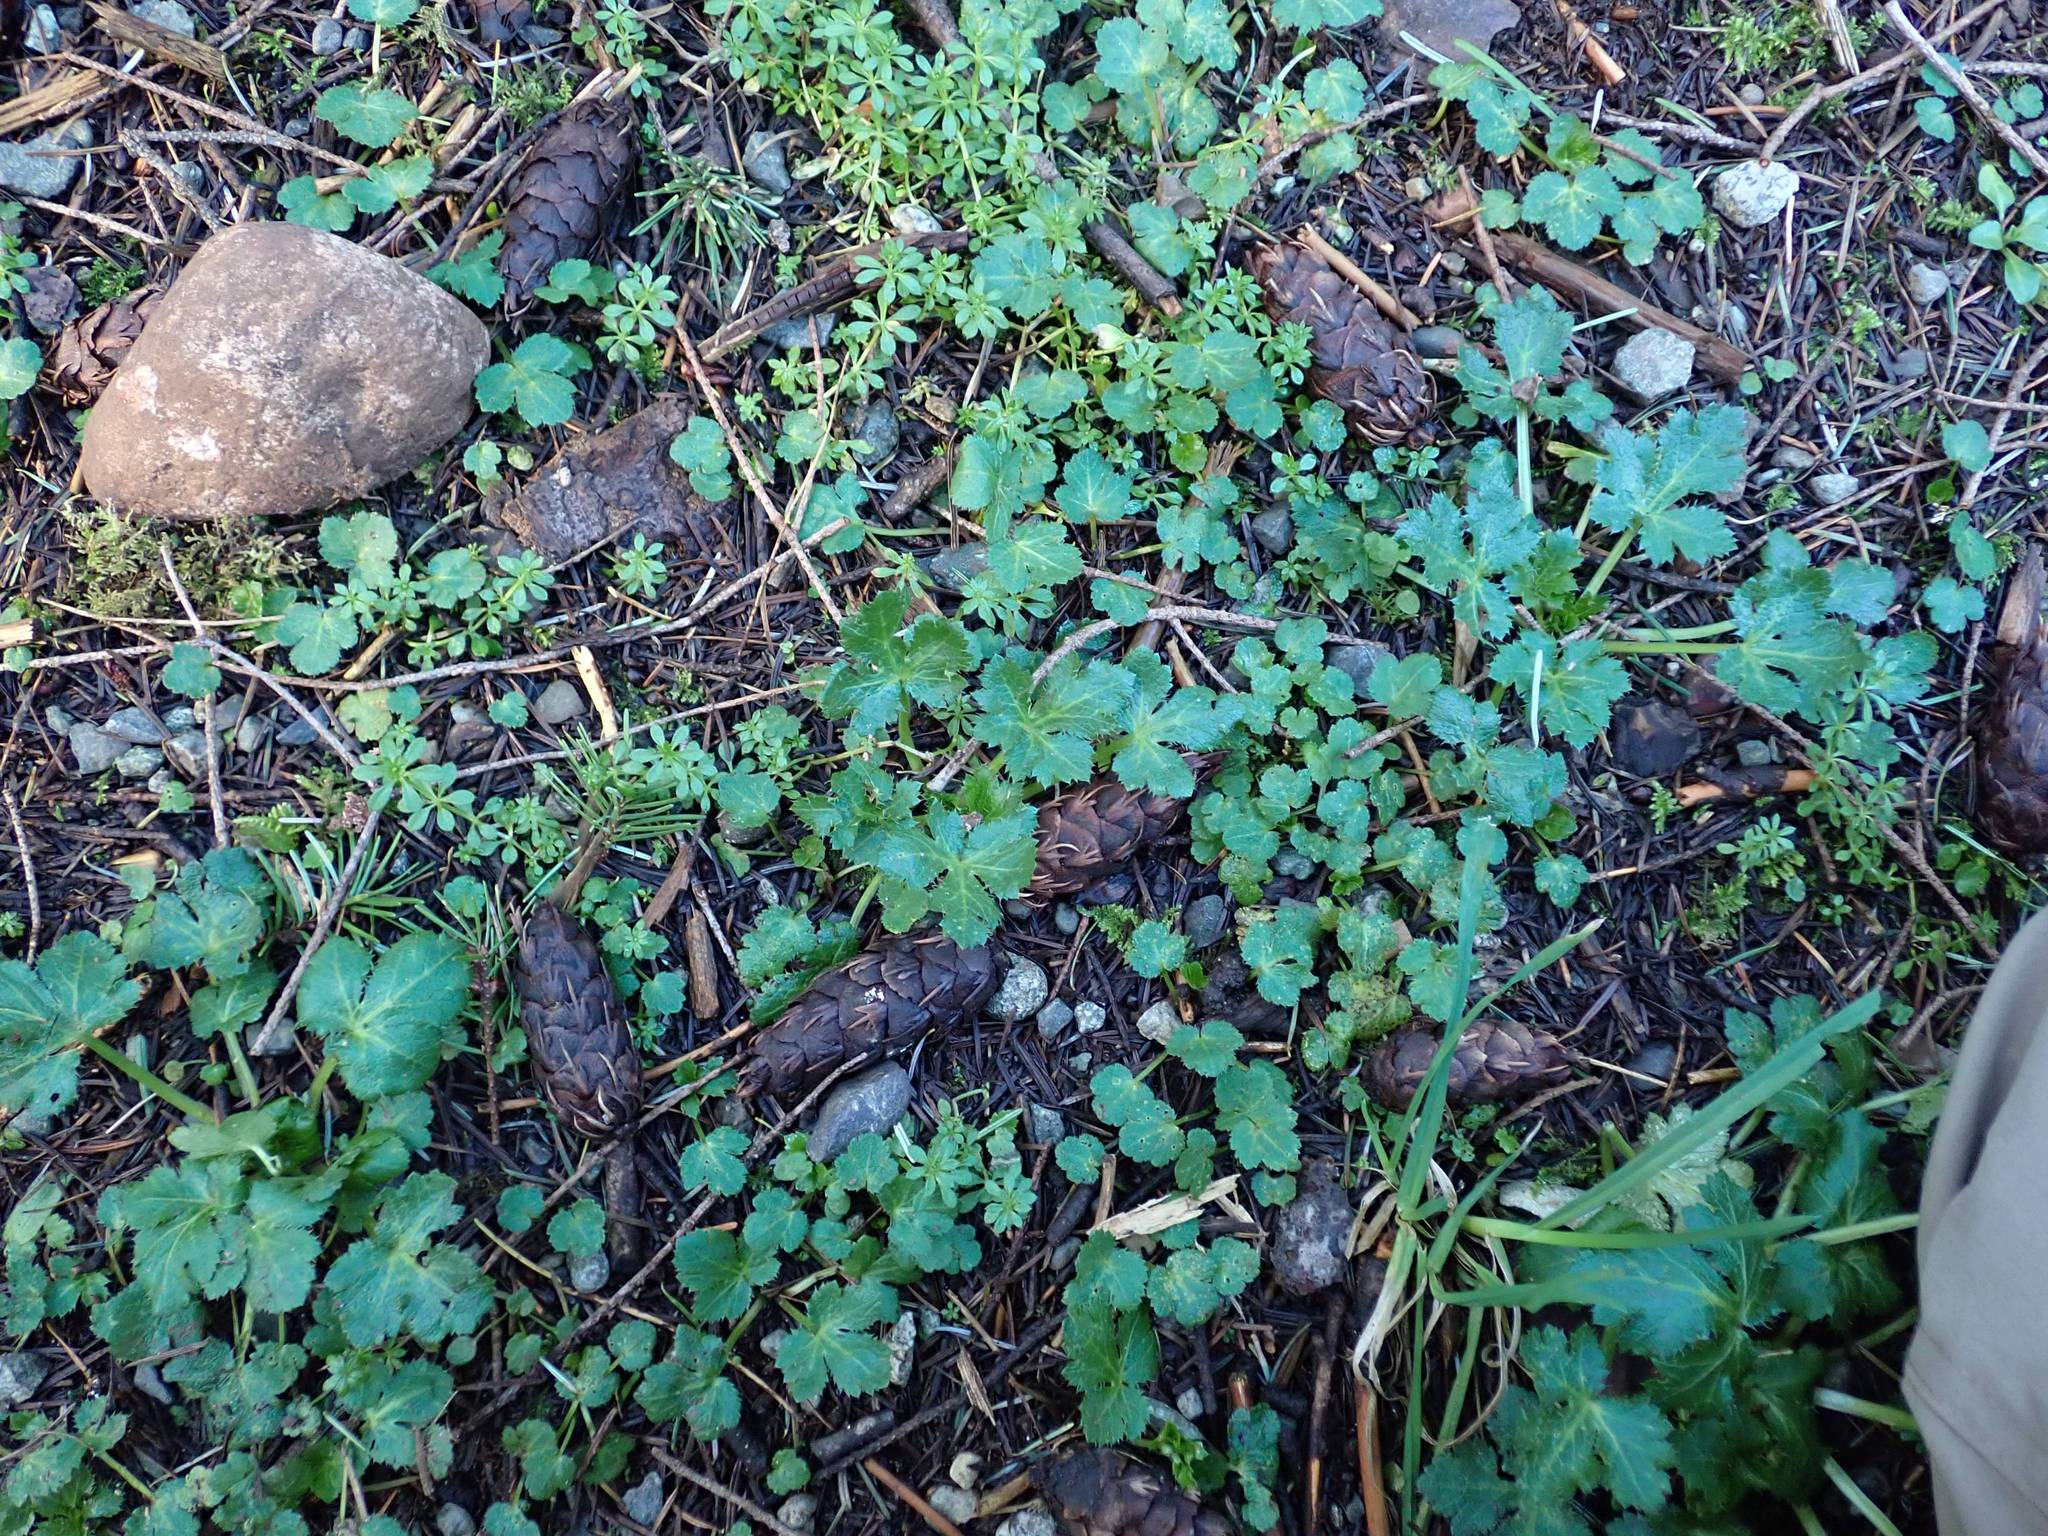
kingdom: Plantae
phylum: Tracheophyta
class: Magnoliopsida
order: Apiales
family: Apiaceae
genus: Sanicula
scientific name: Sanicula crassicaulis
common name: Western snakeroot
